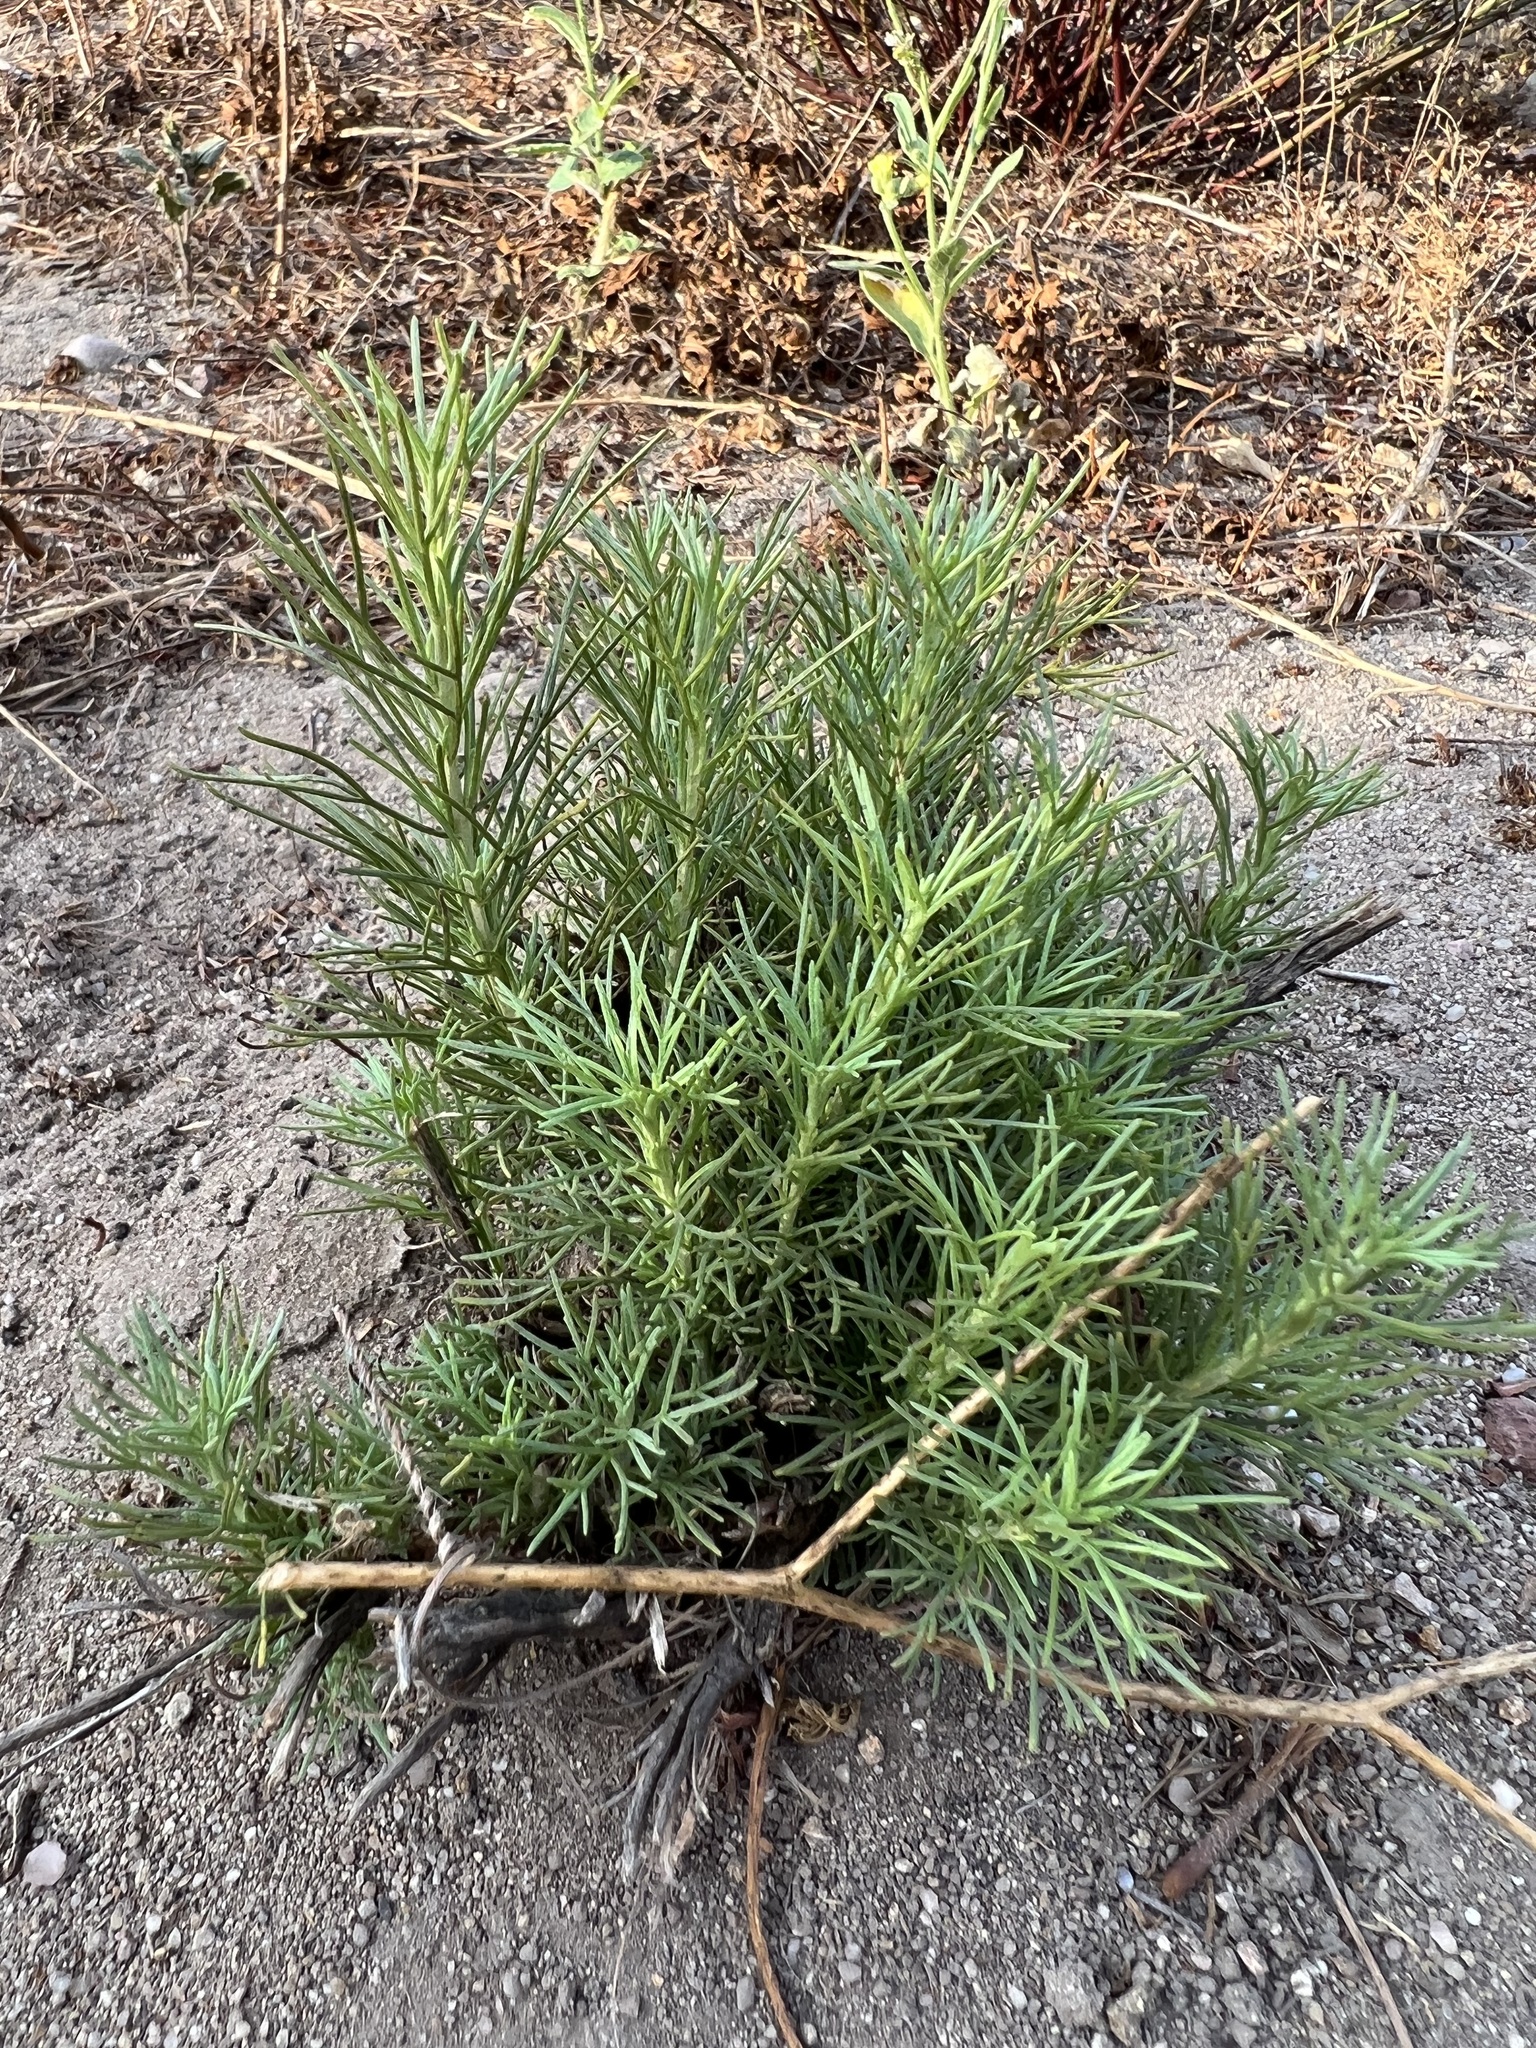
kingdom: Plantae
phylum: Tracheophyta
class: Magnoliopsida
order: Asterales
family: Asteraceae
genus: Artemisia
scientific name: Artemisia californica
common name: California sagebrush
